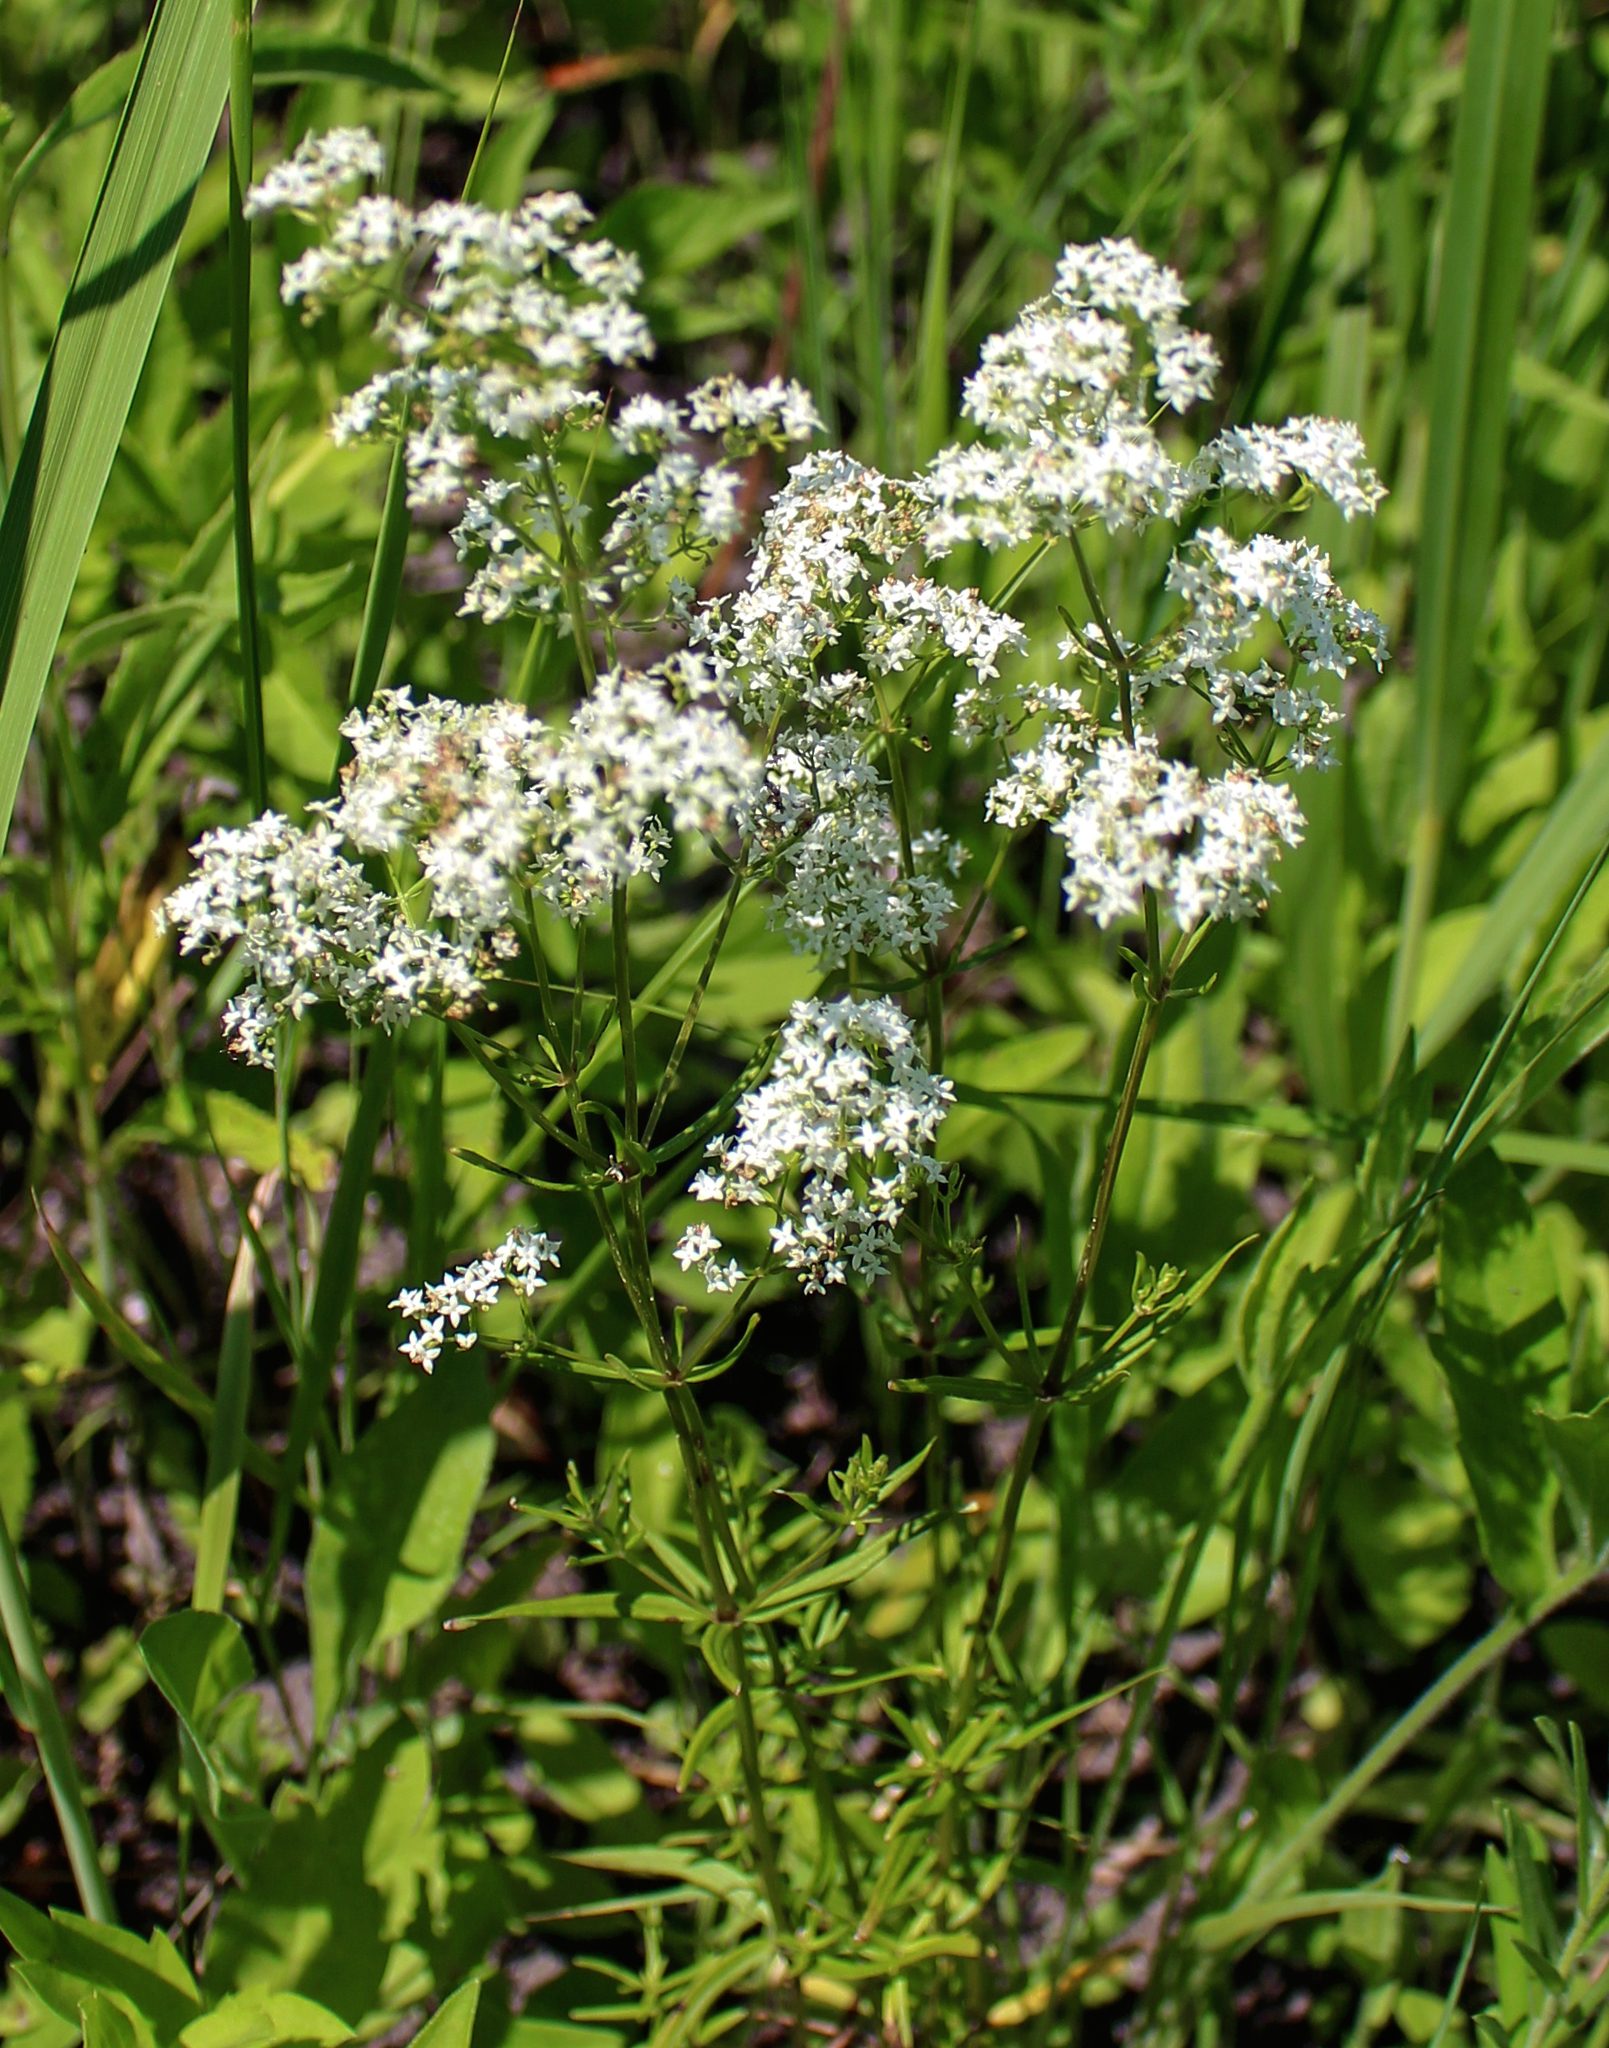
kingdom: Plantae
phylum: Tracheophyta
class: Magnoliopsida
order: Gentianales
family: Rubiaceae
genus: Galium
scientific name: Galium boreale
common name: Northern bedstraw
